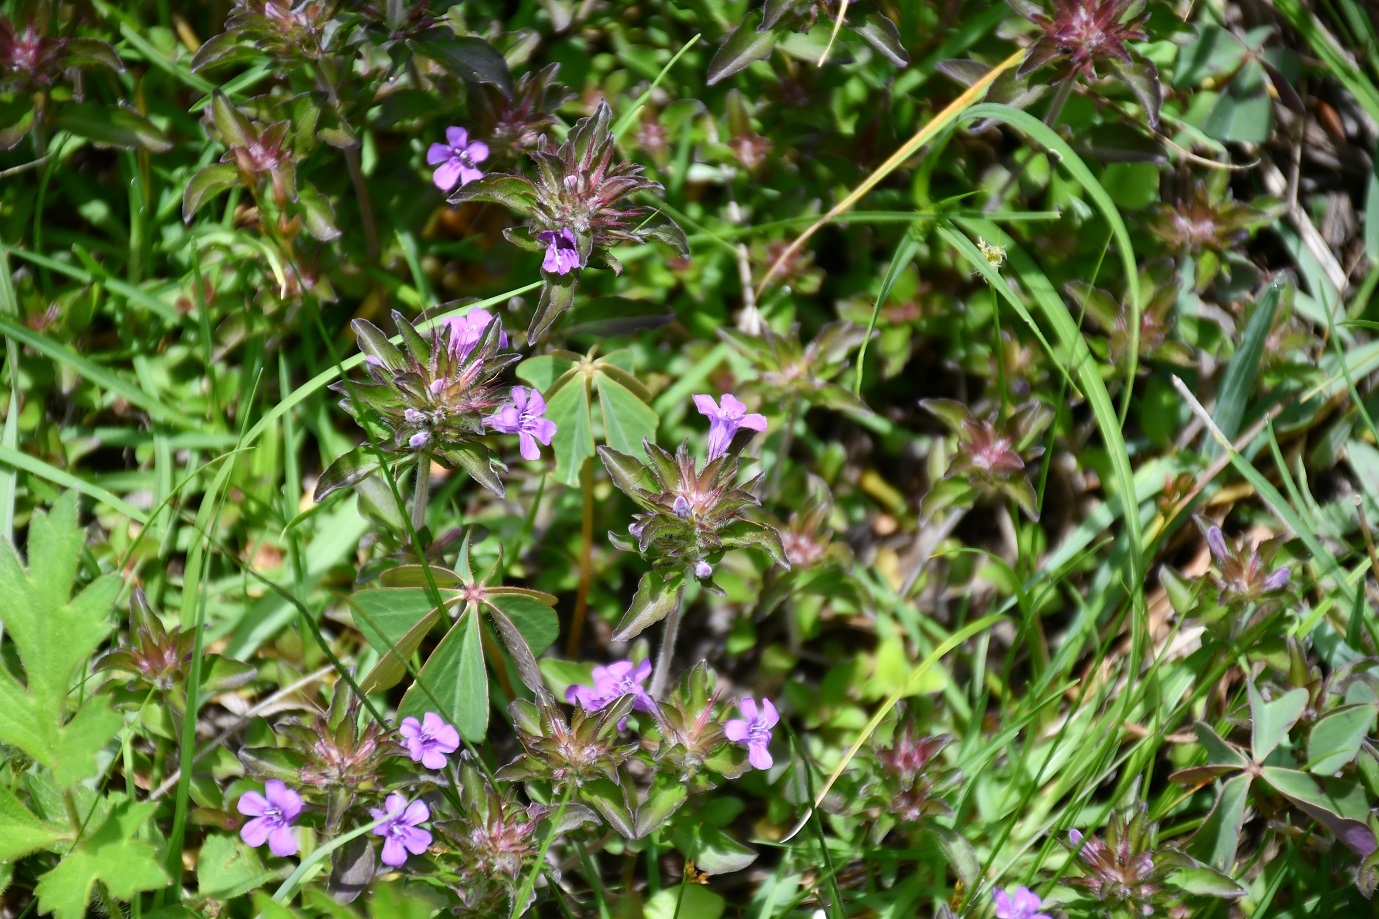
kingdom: Plantae
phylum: Tracheophyta
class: Magnoliopsida
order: Lamiales
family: Acanthaceae
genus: Dyschoriste
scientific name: Dyschoriste capitata
